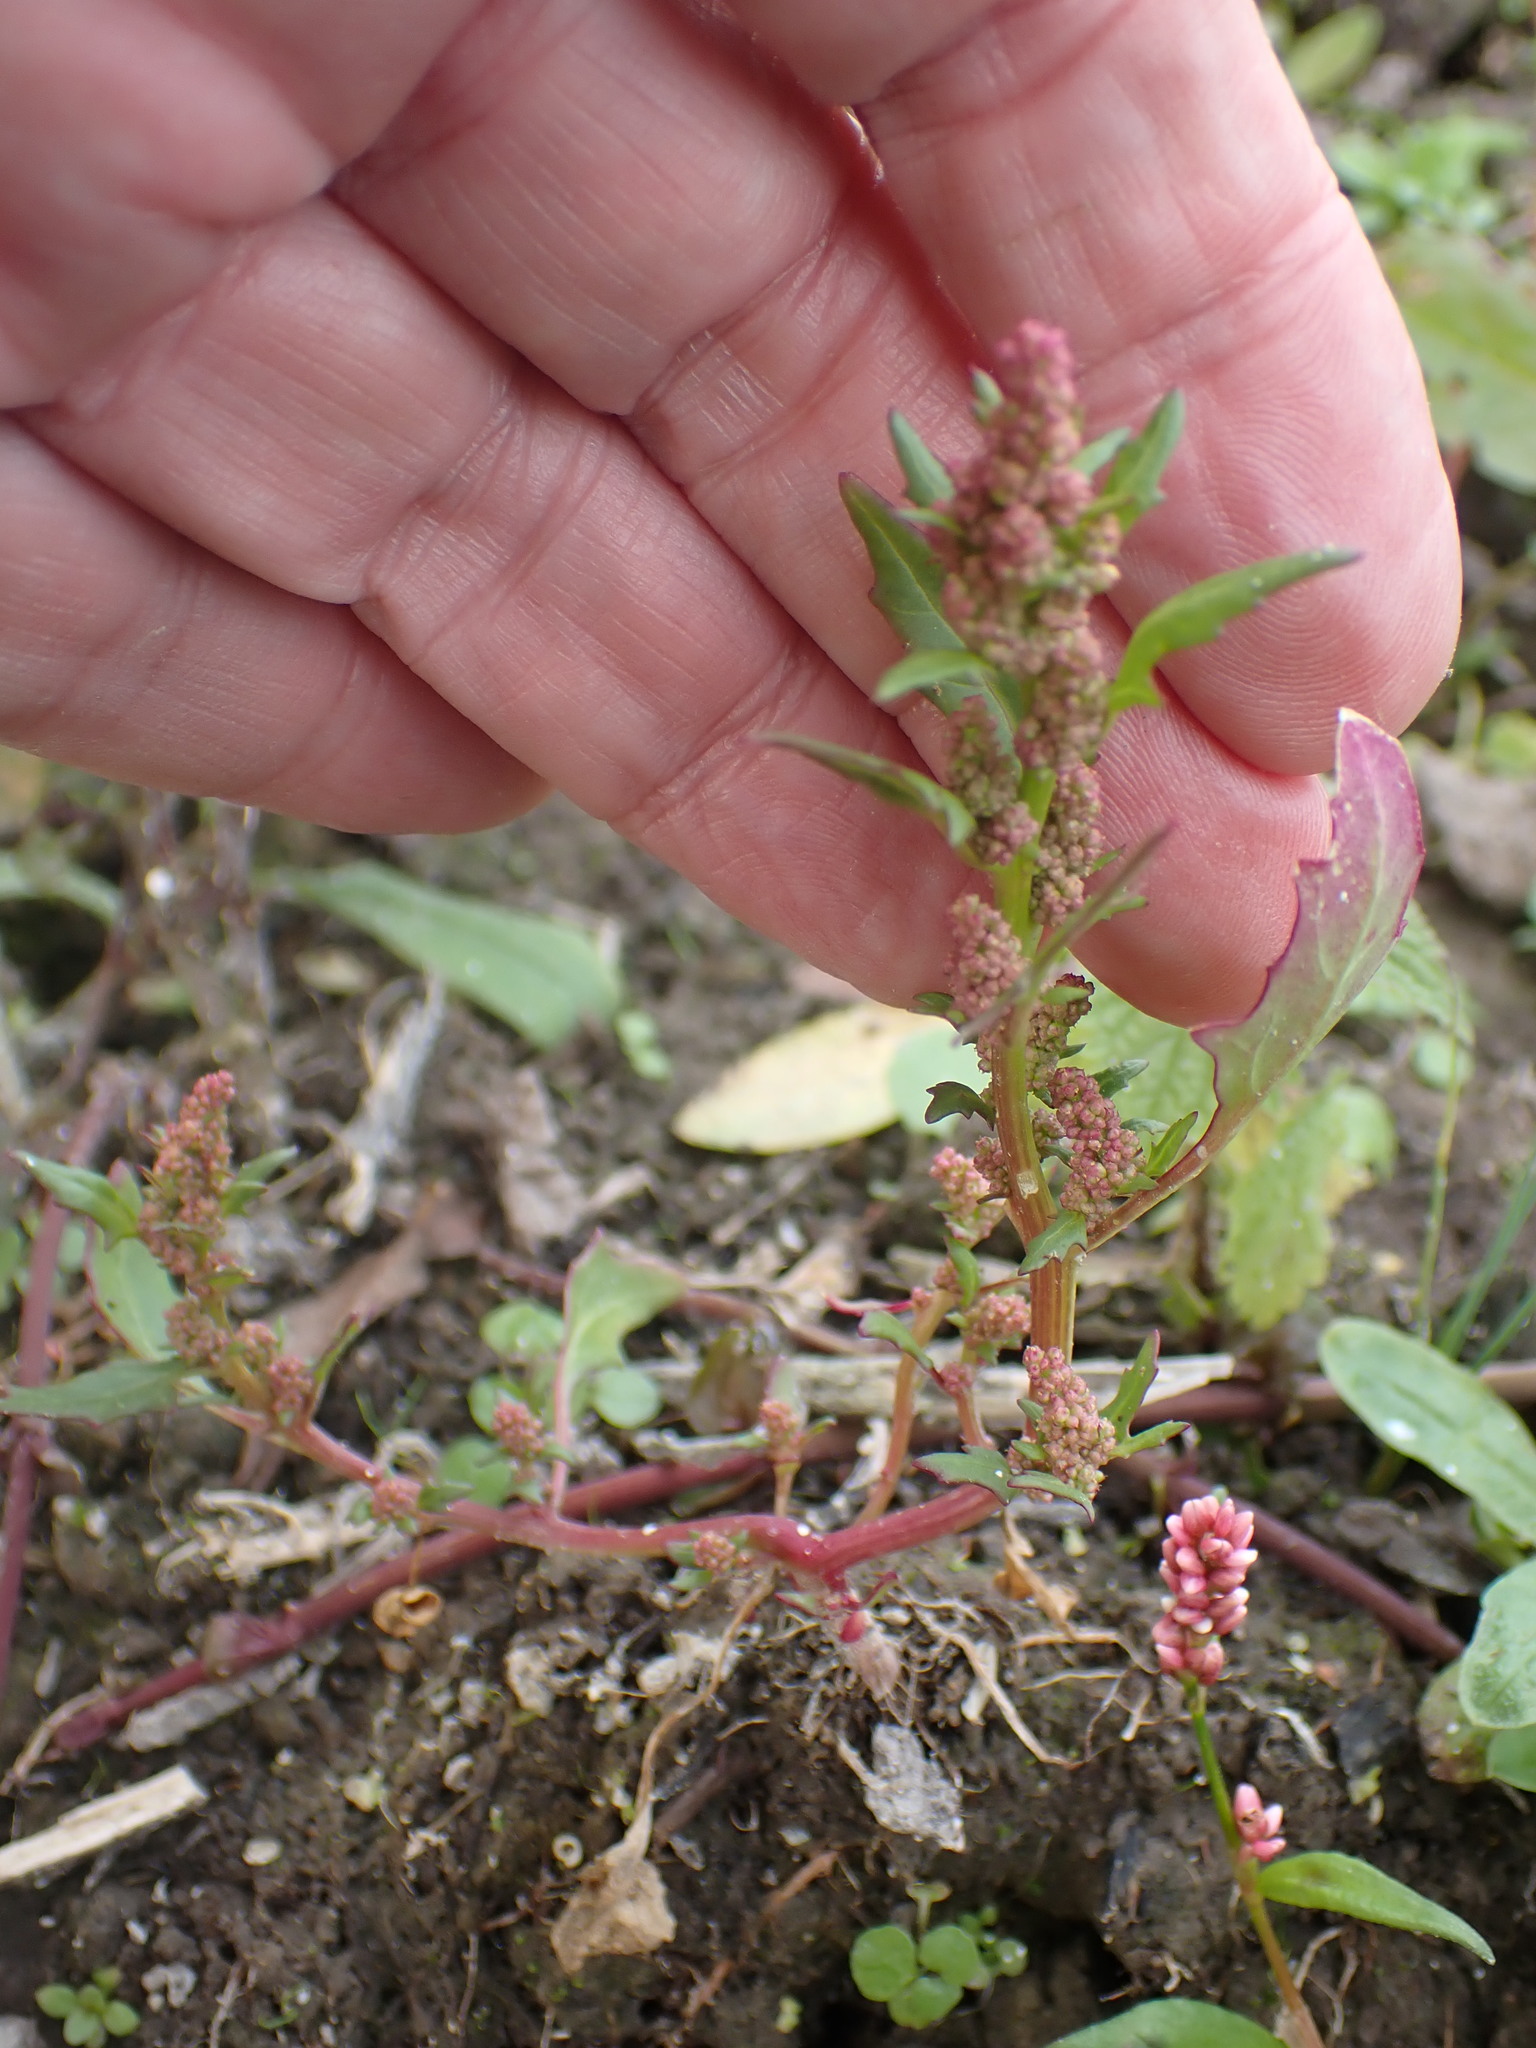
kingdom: Plantae
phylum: Tracheophyta
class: Magnoliopsida
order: Caryophyllales
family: Amaranthaceae
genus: Oxybasis
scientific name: Oxybasis rubra
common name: Red goosefoot
